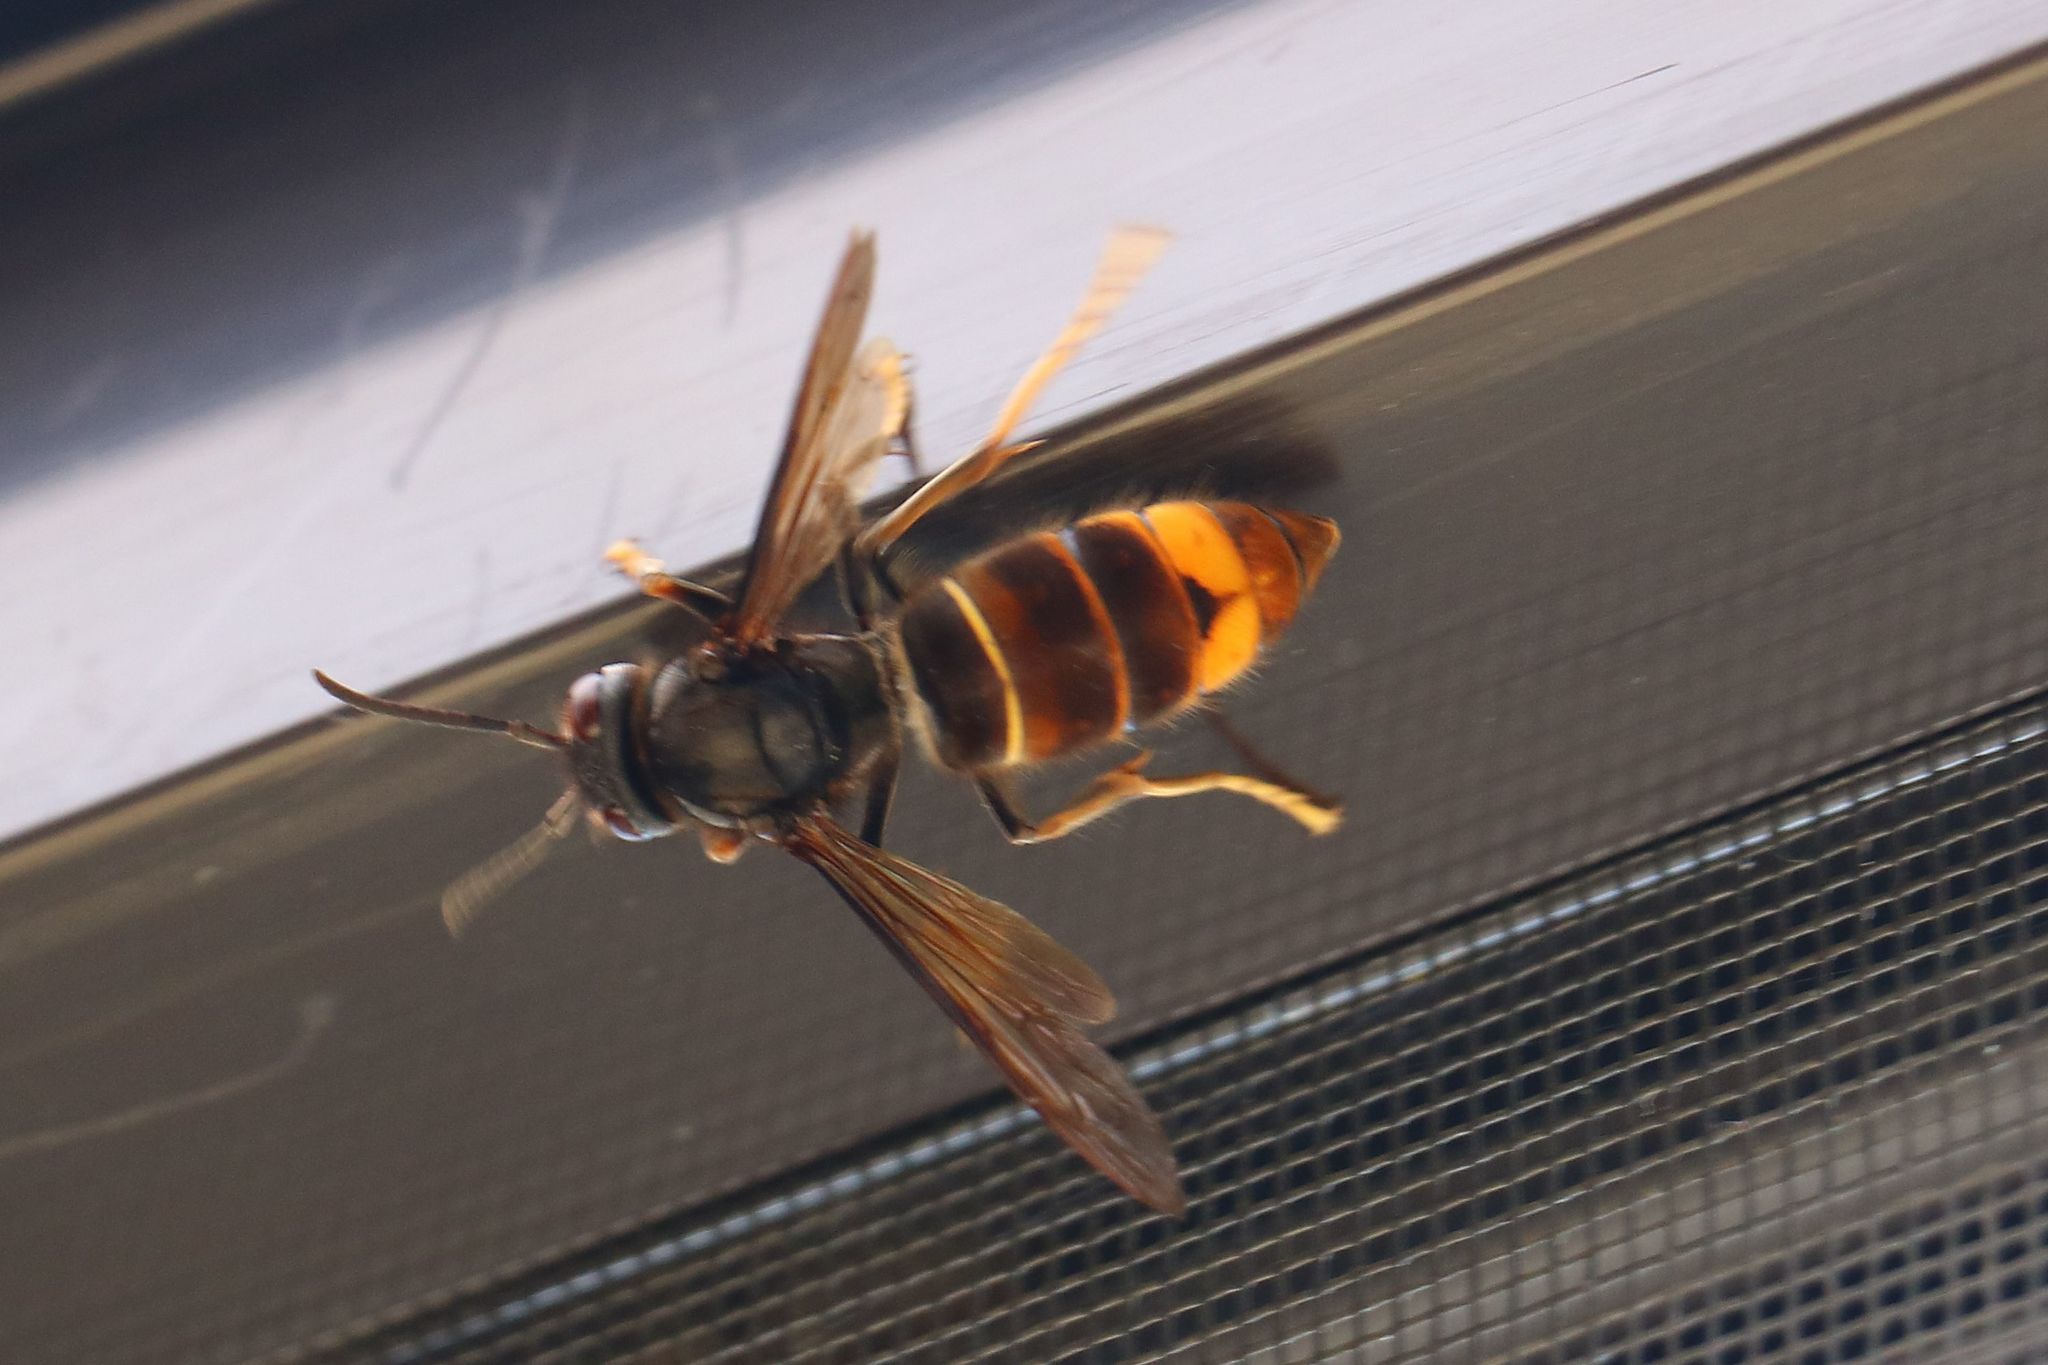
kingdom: Animalia
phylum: Arthropoda
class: Insecta
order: Hymenoptera
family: Vespidae
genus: Vespa
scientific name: Vespa velutina
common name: Asian hornet
